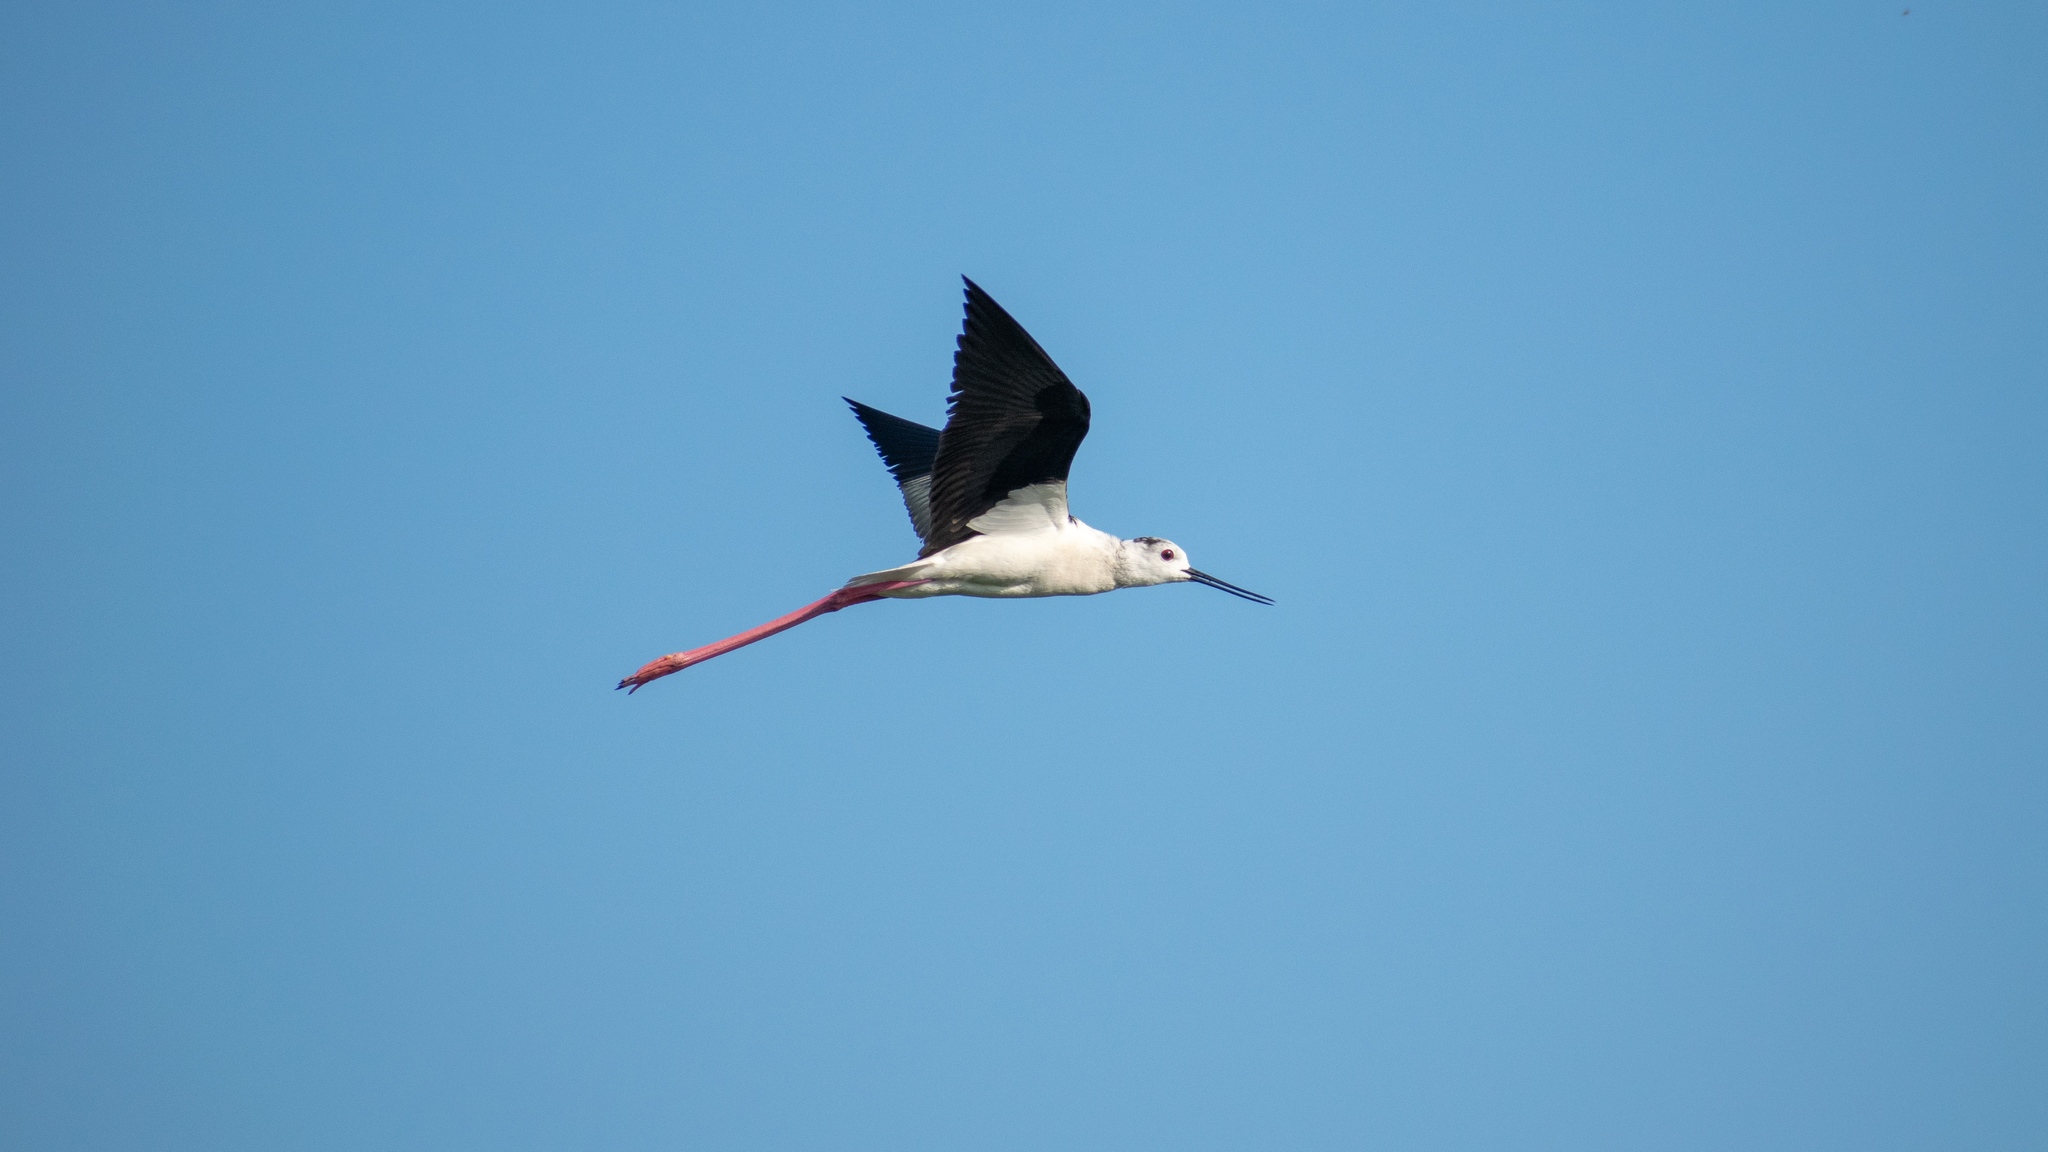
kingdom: Animalia
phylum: Chordata
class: Aves
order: Charadriiformes
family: Recurvirostridae
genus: Himantopus
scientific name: Himantopus himantopus
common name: Black-winged stilt
